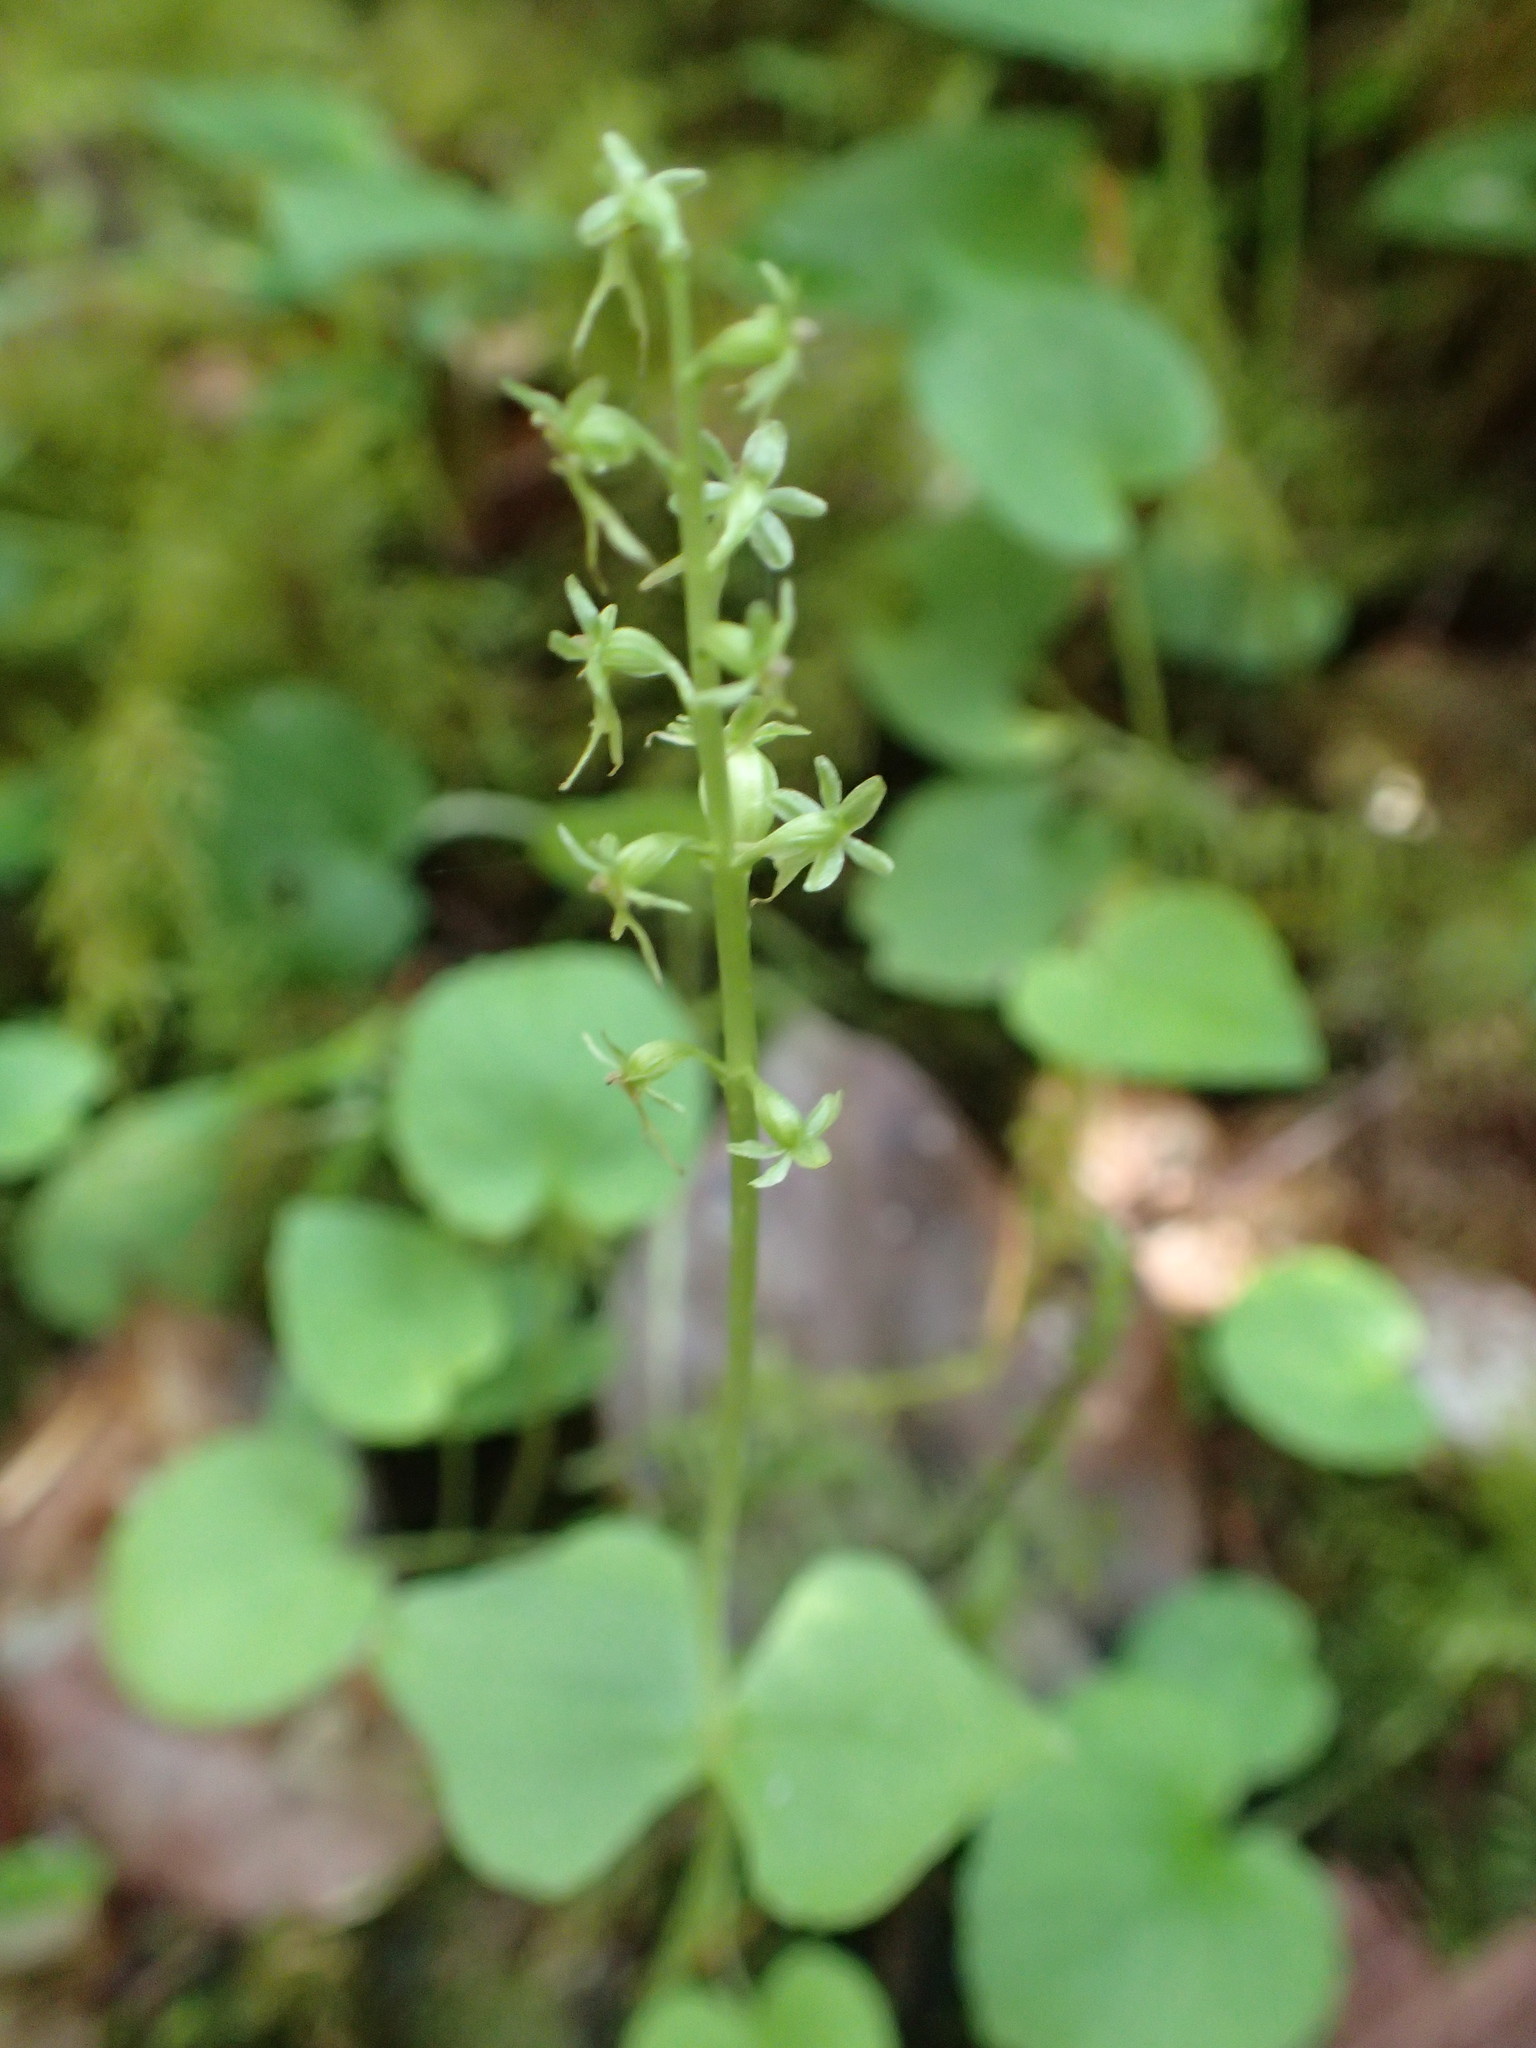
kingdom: Plantae
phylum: Tracheophyta
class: Liliopsida
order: Asparagales
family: Orchidaceae
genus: Neottia
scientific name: Neottia cordata
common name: Lesser twayblade
